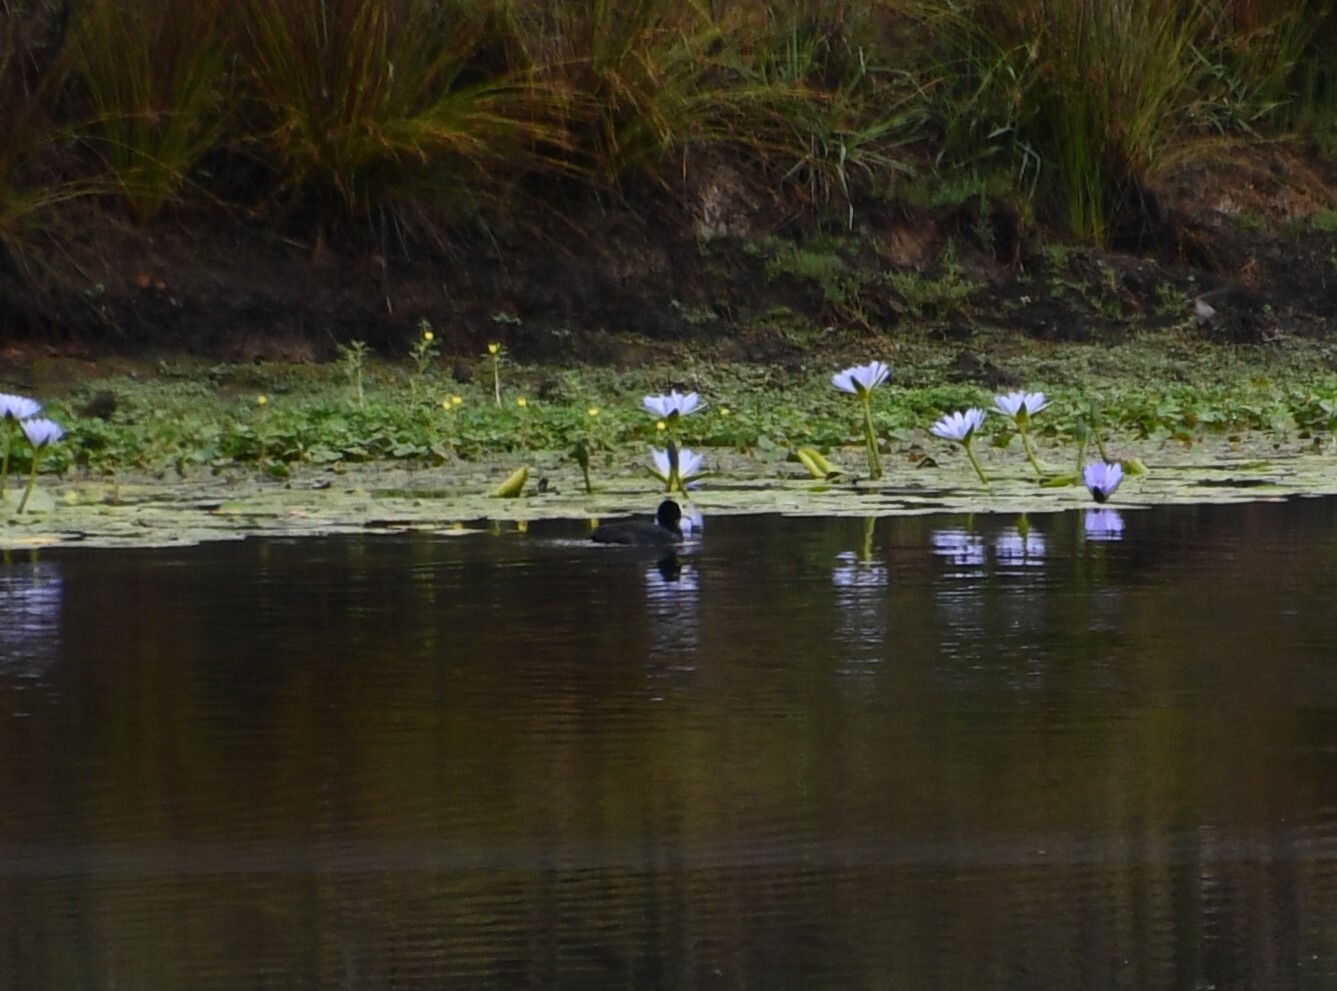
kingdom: Animalia
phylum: Chordata
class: Aves
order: Gruiformes
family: Rallidae
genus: Fulica
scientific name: Fulica atra
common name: Eurasian coot
